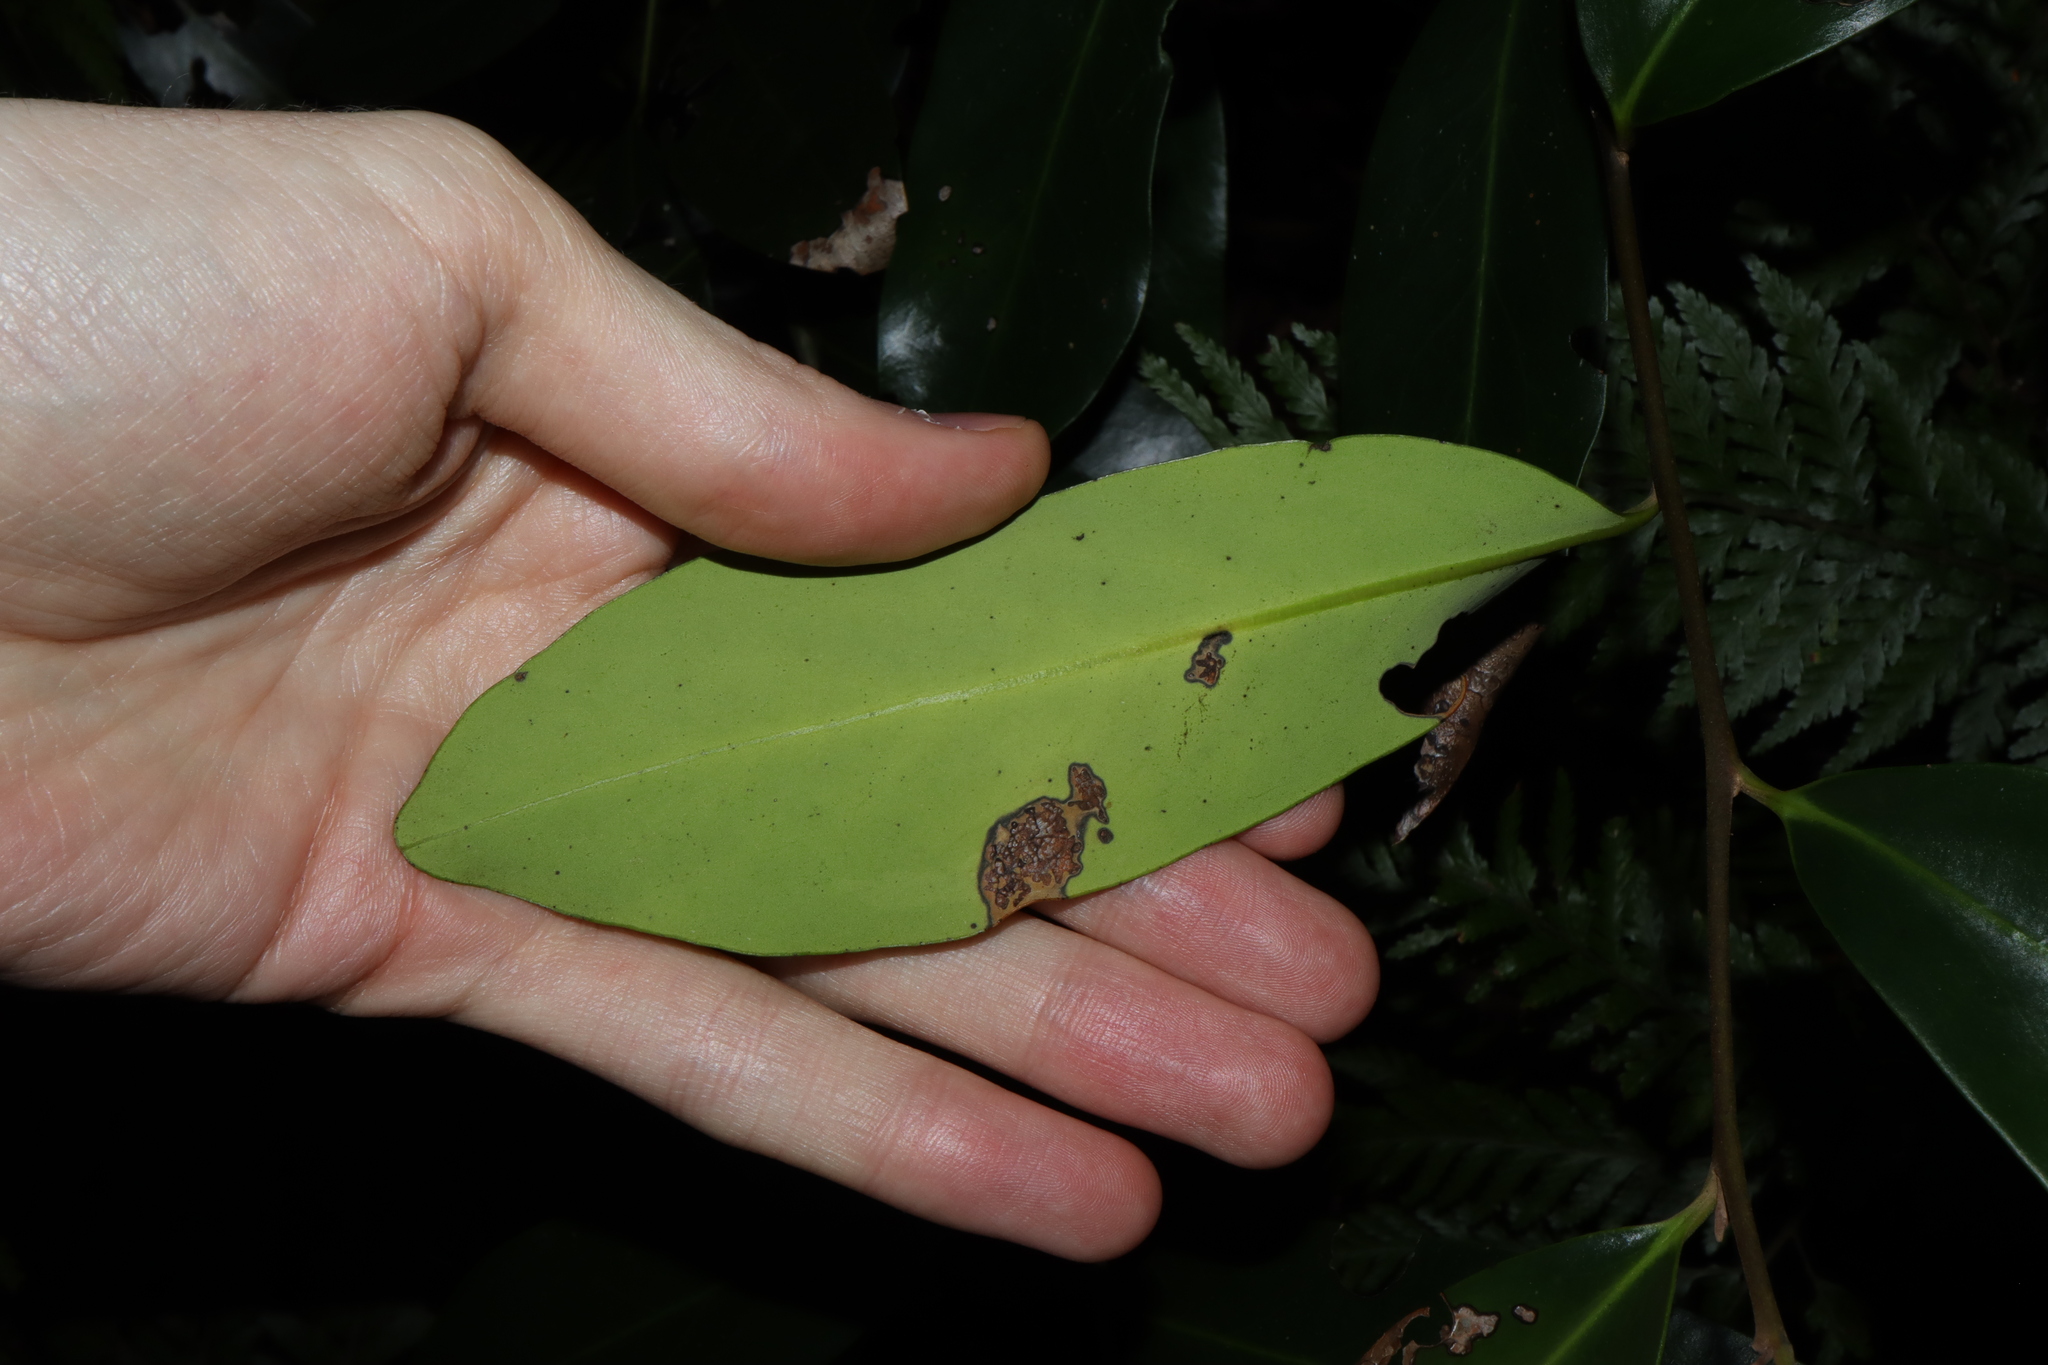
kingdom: Plantae
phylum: Tracheophyta
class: Magnoliopsida
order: Ericales
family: Ebenaceae
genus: Diospyros
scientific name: Diospyros australis
